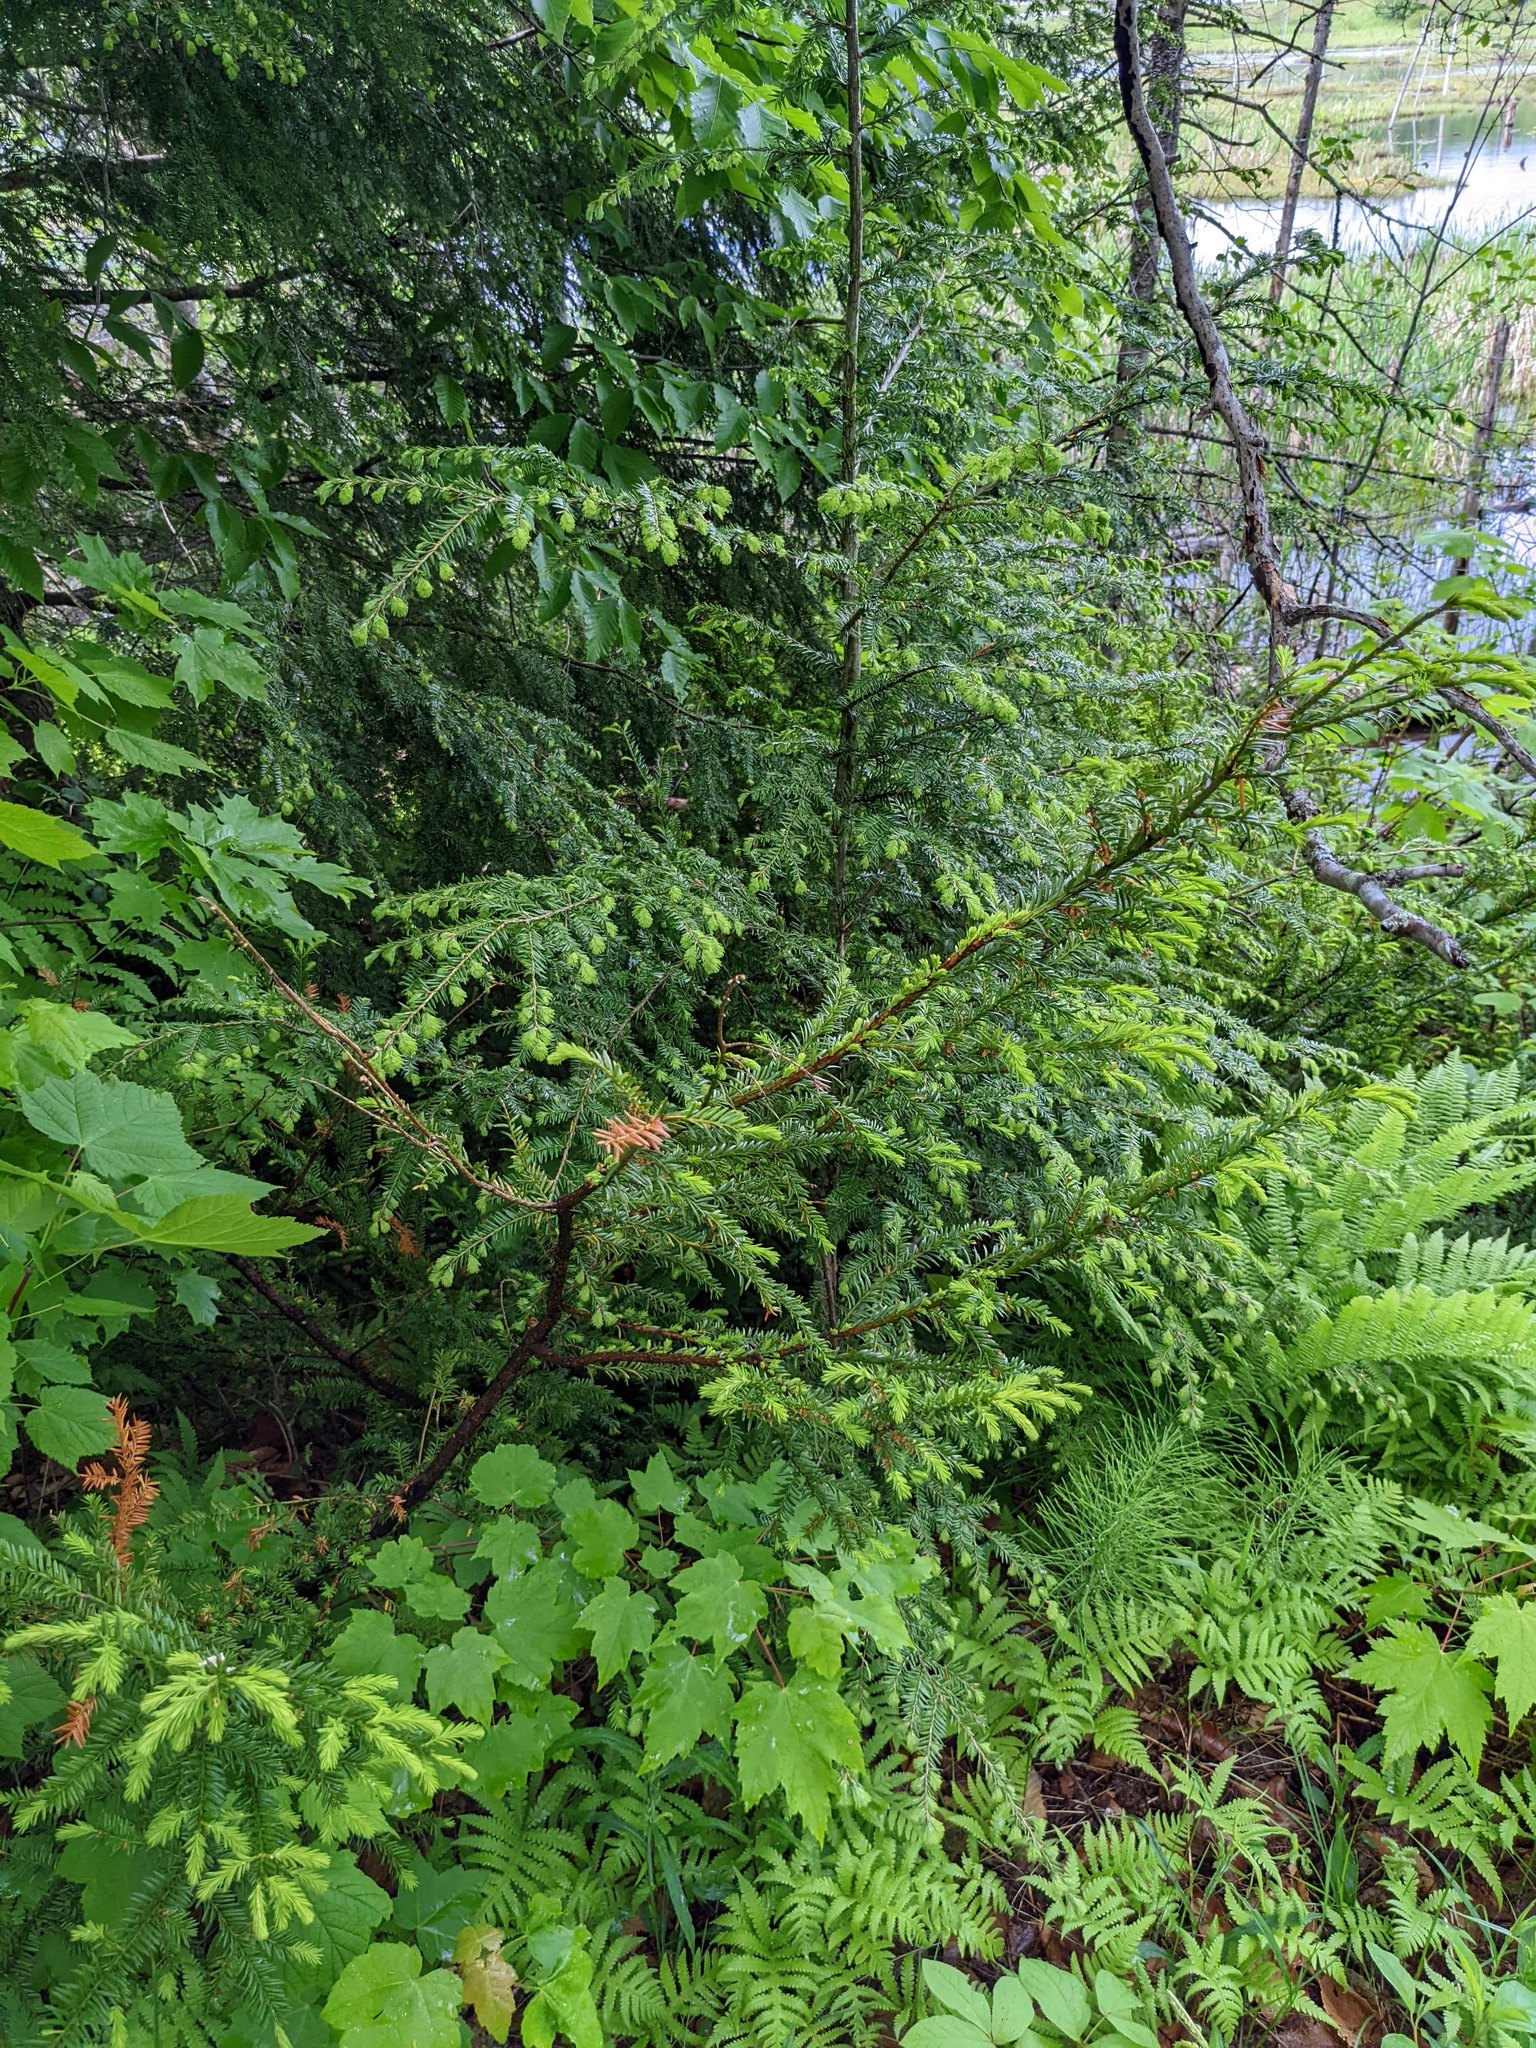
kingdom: Plantae
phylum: Tracheophyta
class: Pinopsida
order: Pinales
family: Taxaceae
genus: Taxus
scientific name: Taxus canadensis
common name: American yew
